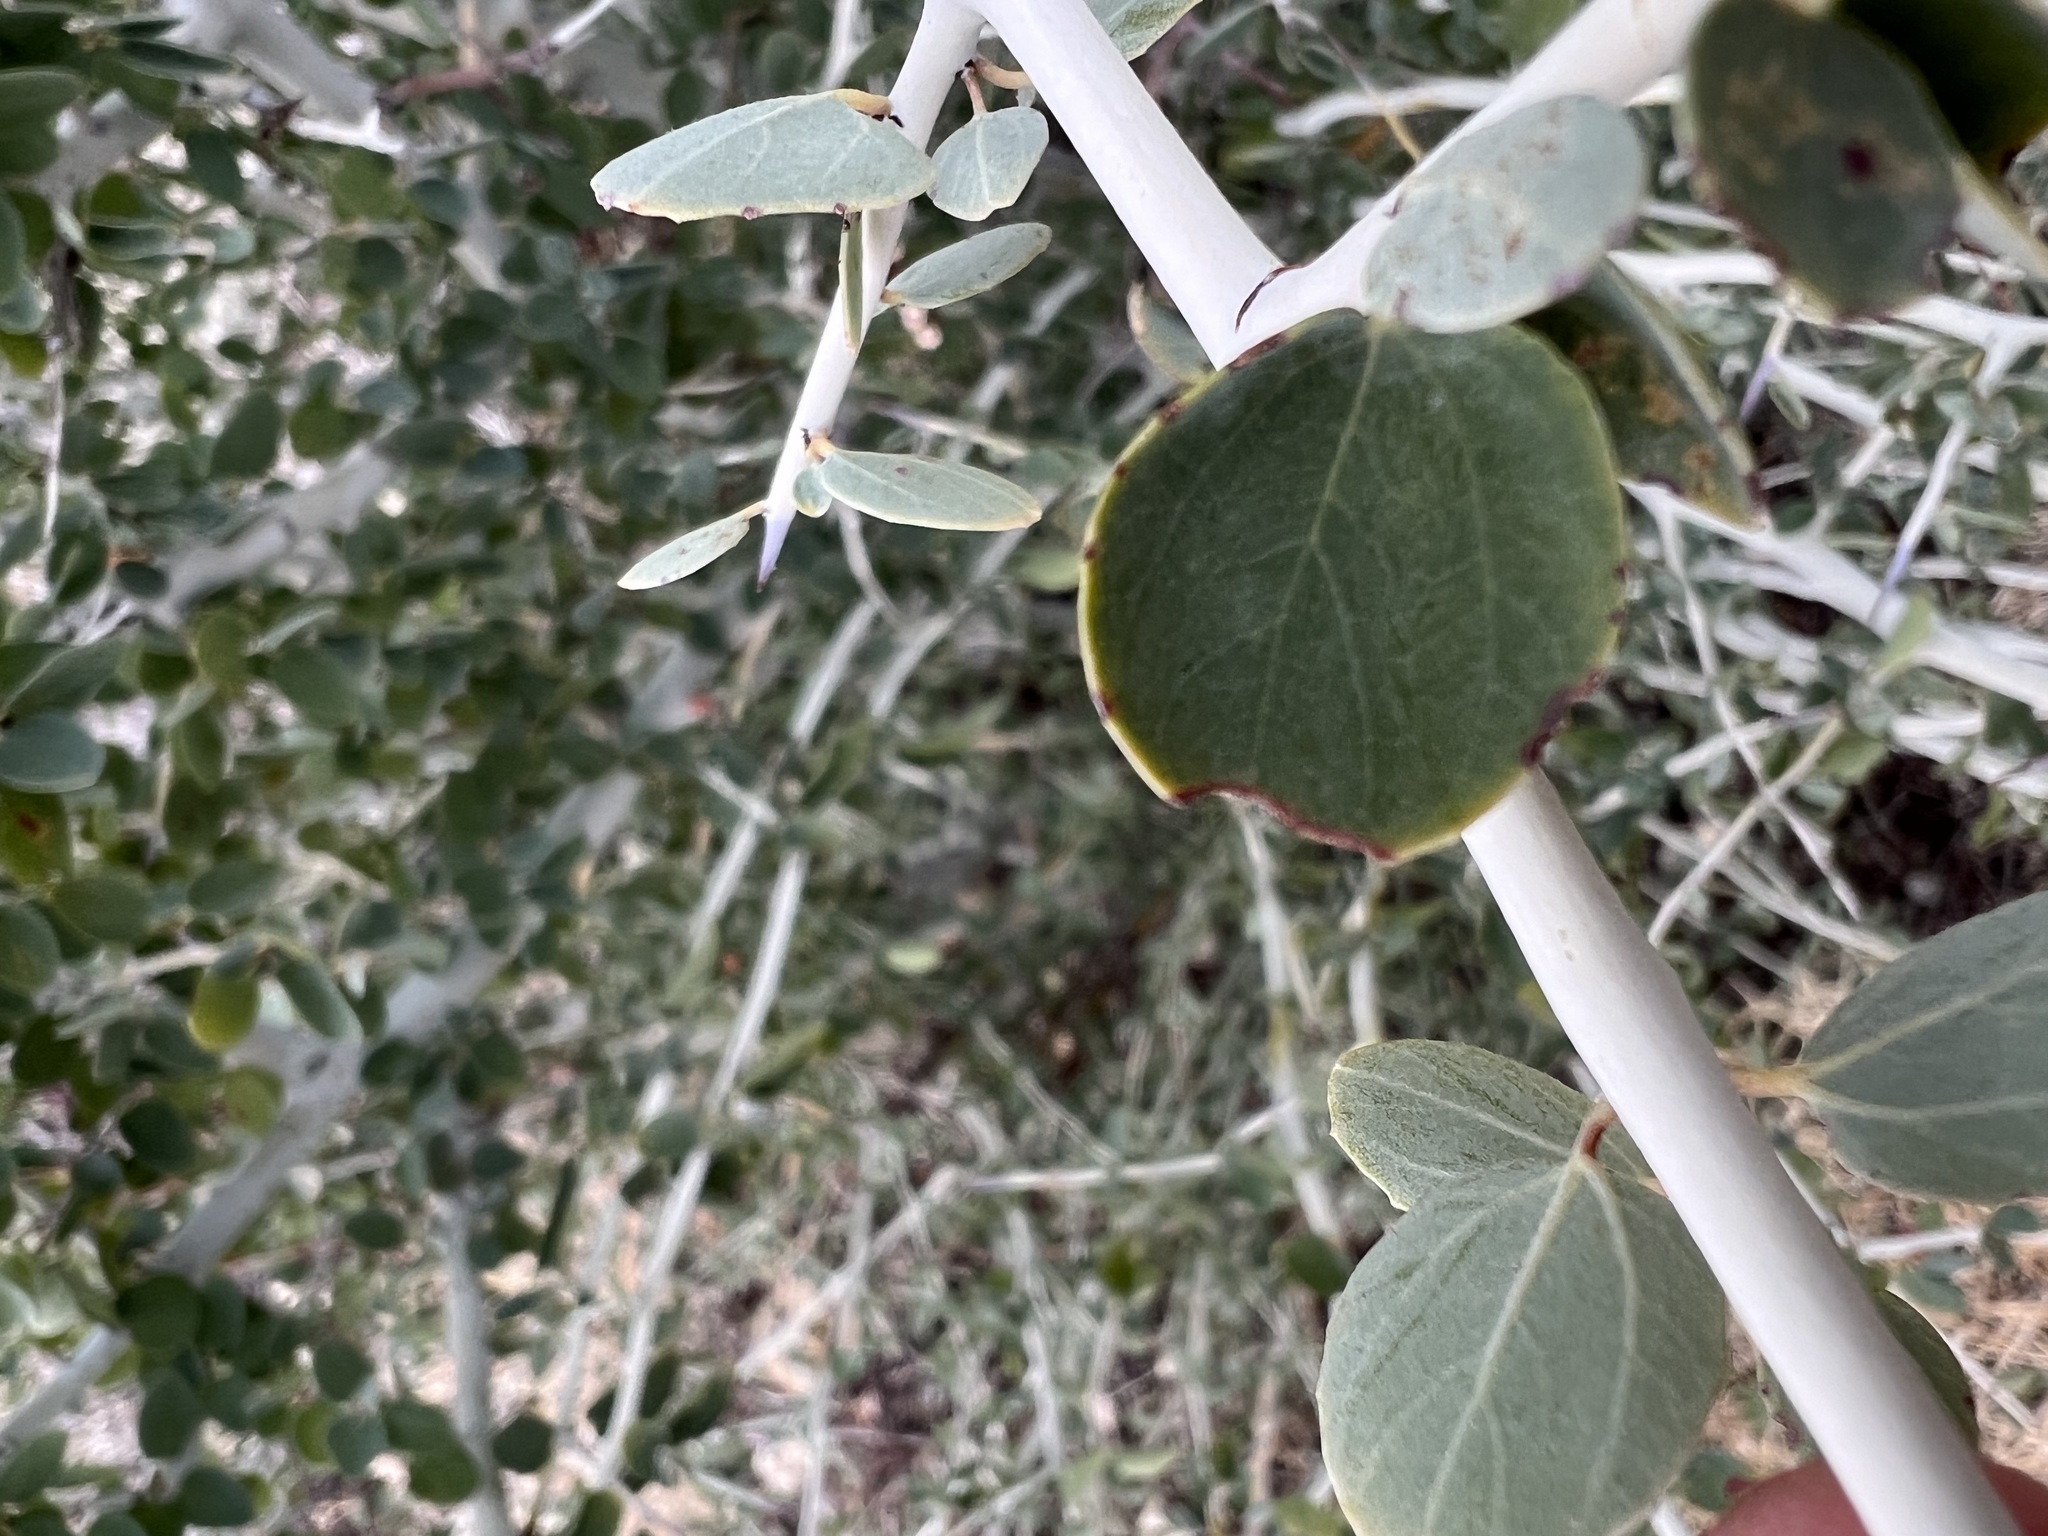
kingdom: Plantae
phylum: Tracheophyta
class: Magnoliopsida
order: Rosales
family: Rhamnaceae
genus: Ceanothus
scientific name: Ceanothus leucodermis
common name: Chaparral whitethorn
